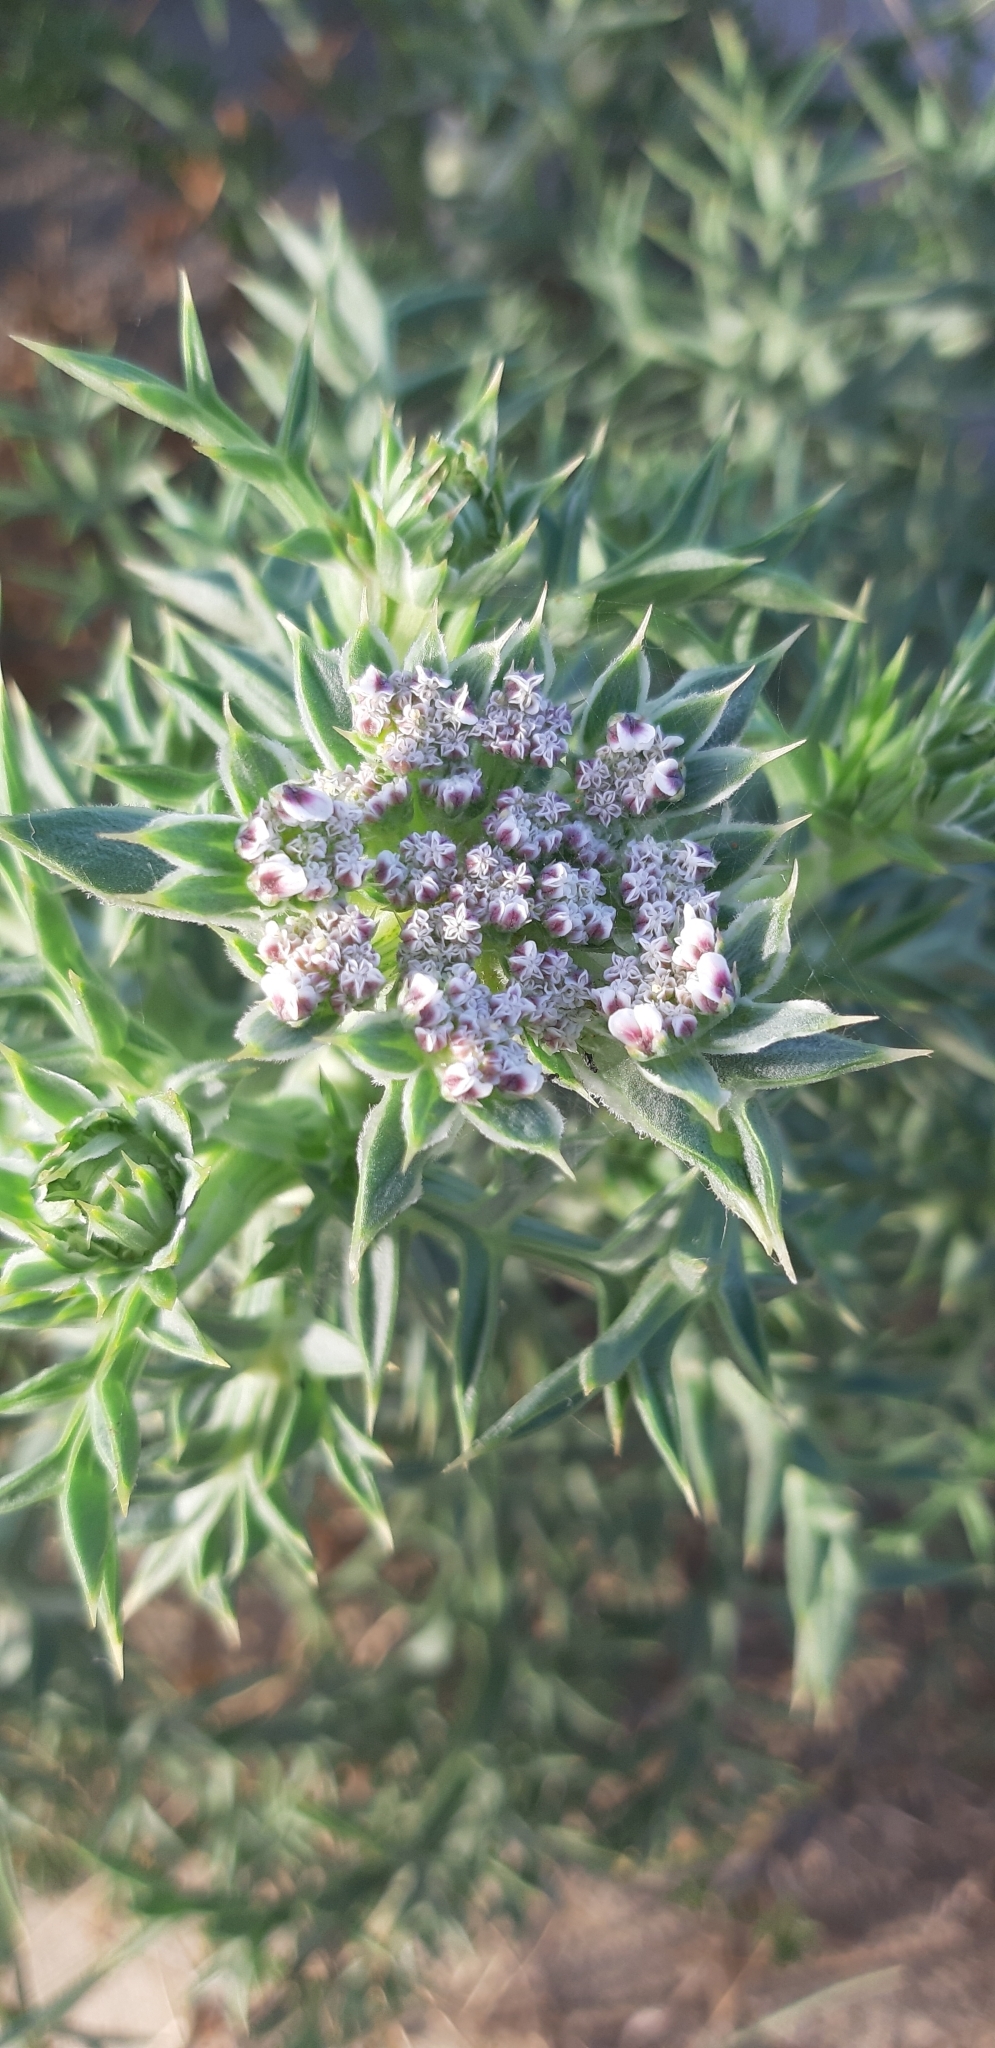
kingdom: Plantae
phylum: Tracheophyta
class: Magnoliopsida
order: Apiales
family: Apiaceae
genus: Echinophora
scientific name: Echinophora spinosa
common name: Prickly samphire
